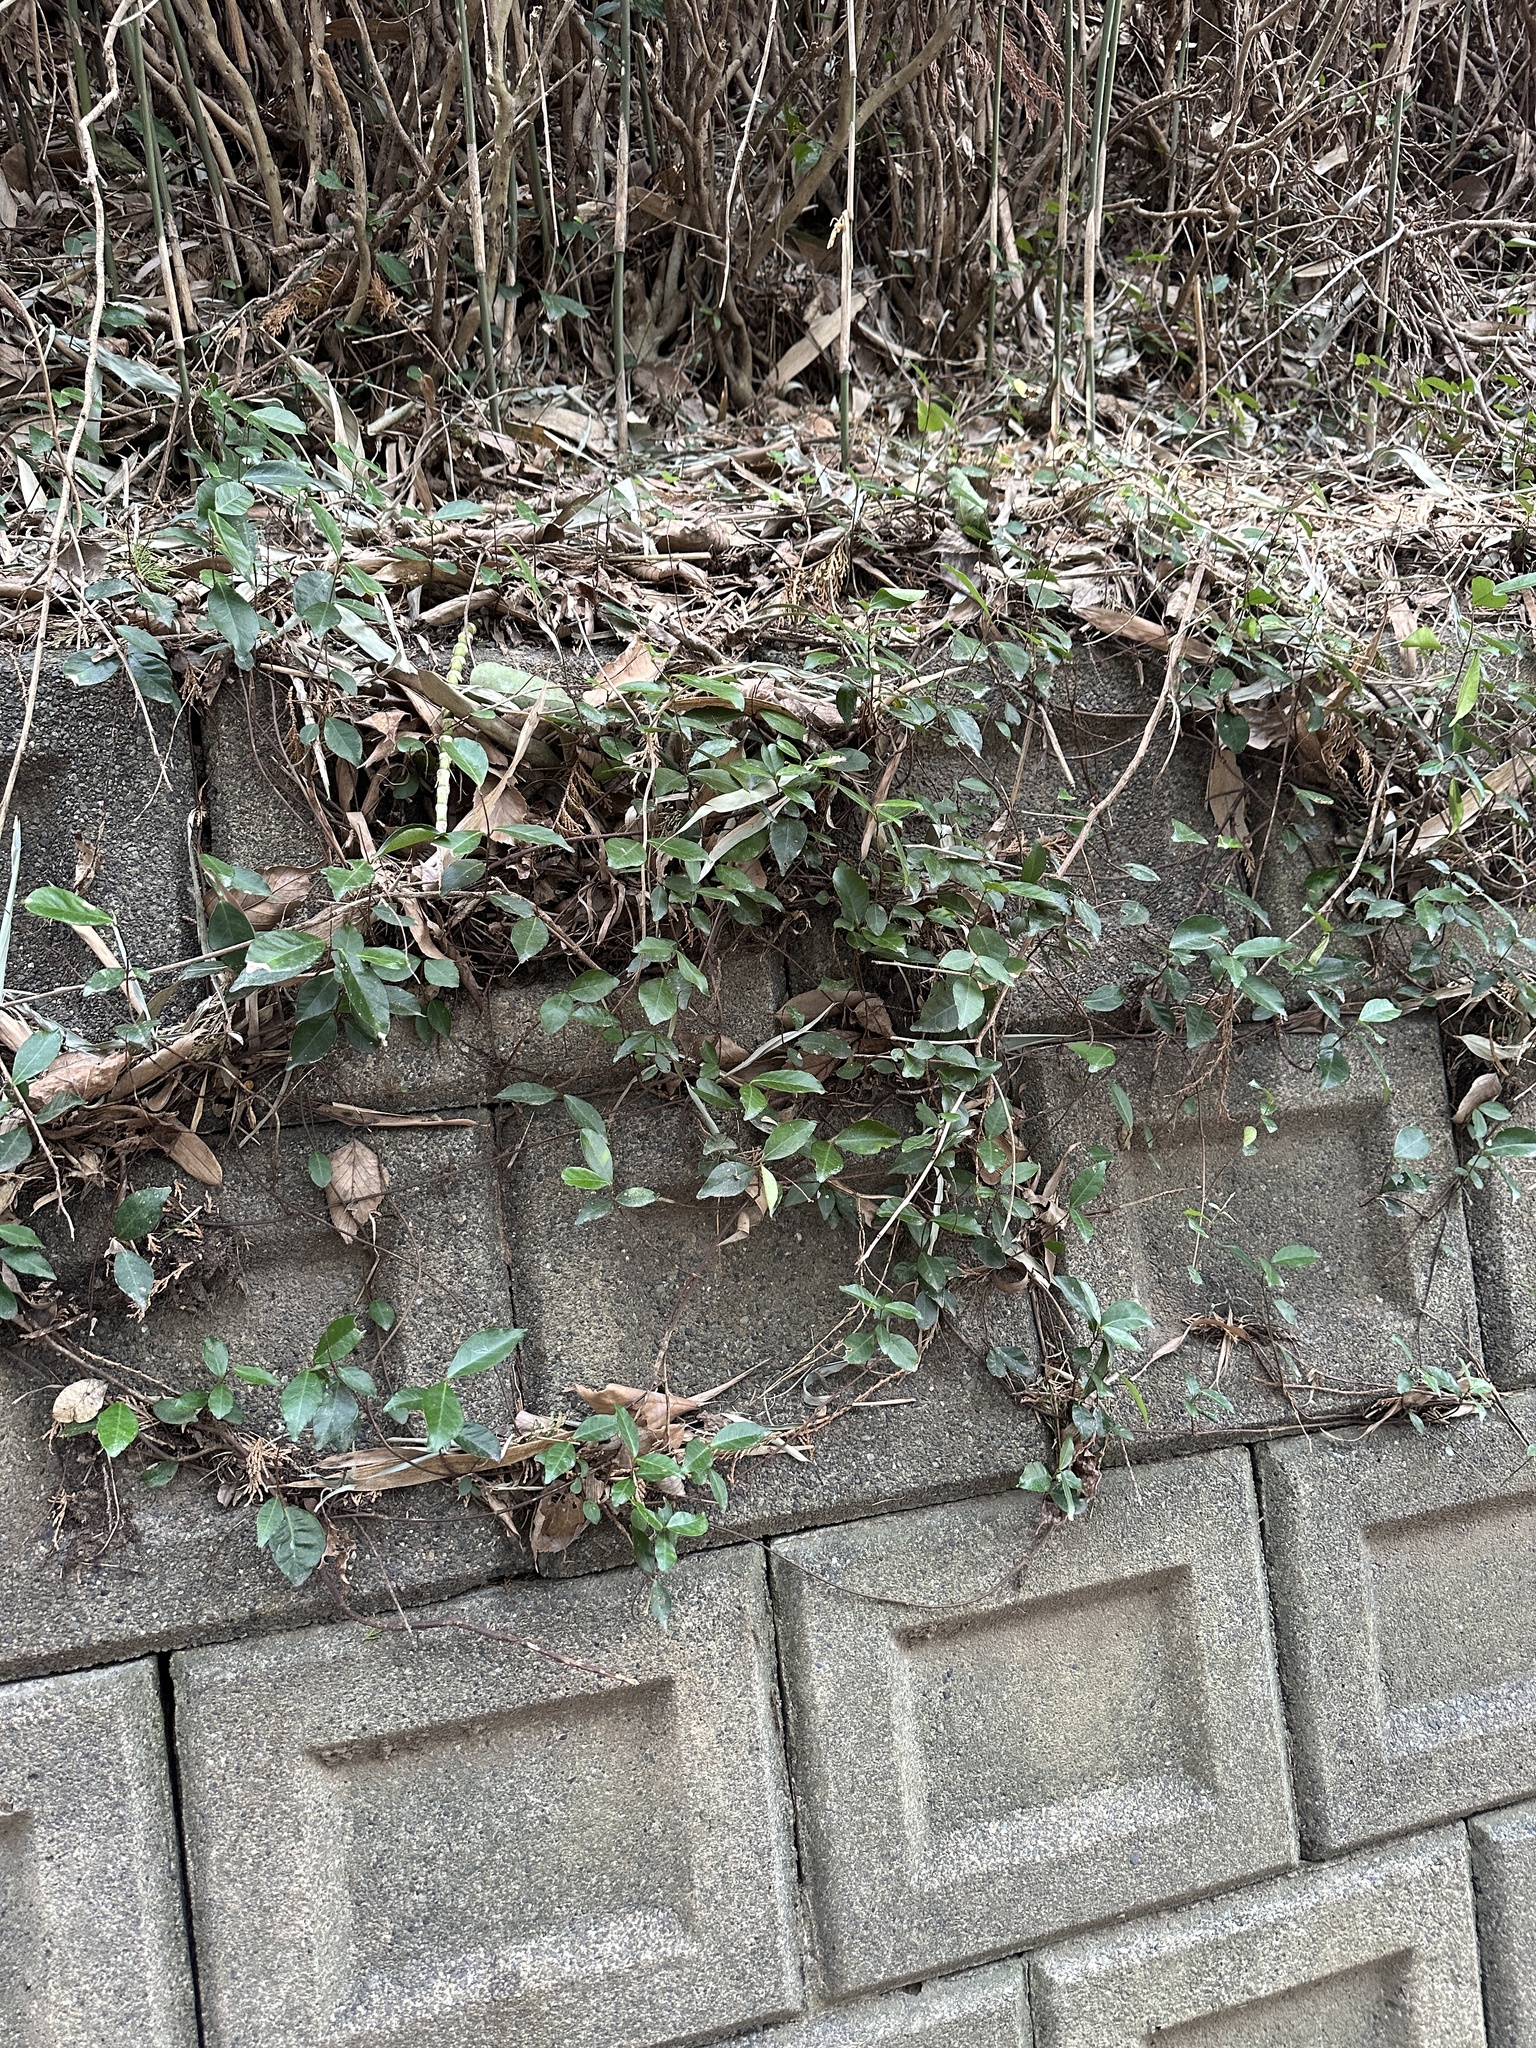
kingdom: Plantae
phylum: Tracheophyta
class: Magnoliopsida
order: Gentianales
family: Apocynaceae
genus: Trachelospermum
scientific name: Trachelospermum asiaticum
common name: Asiatic jasmine
